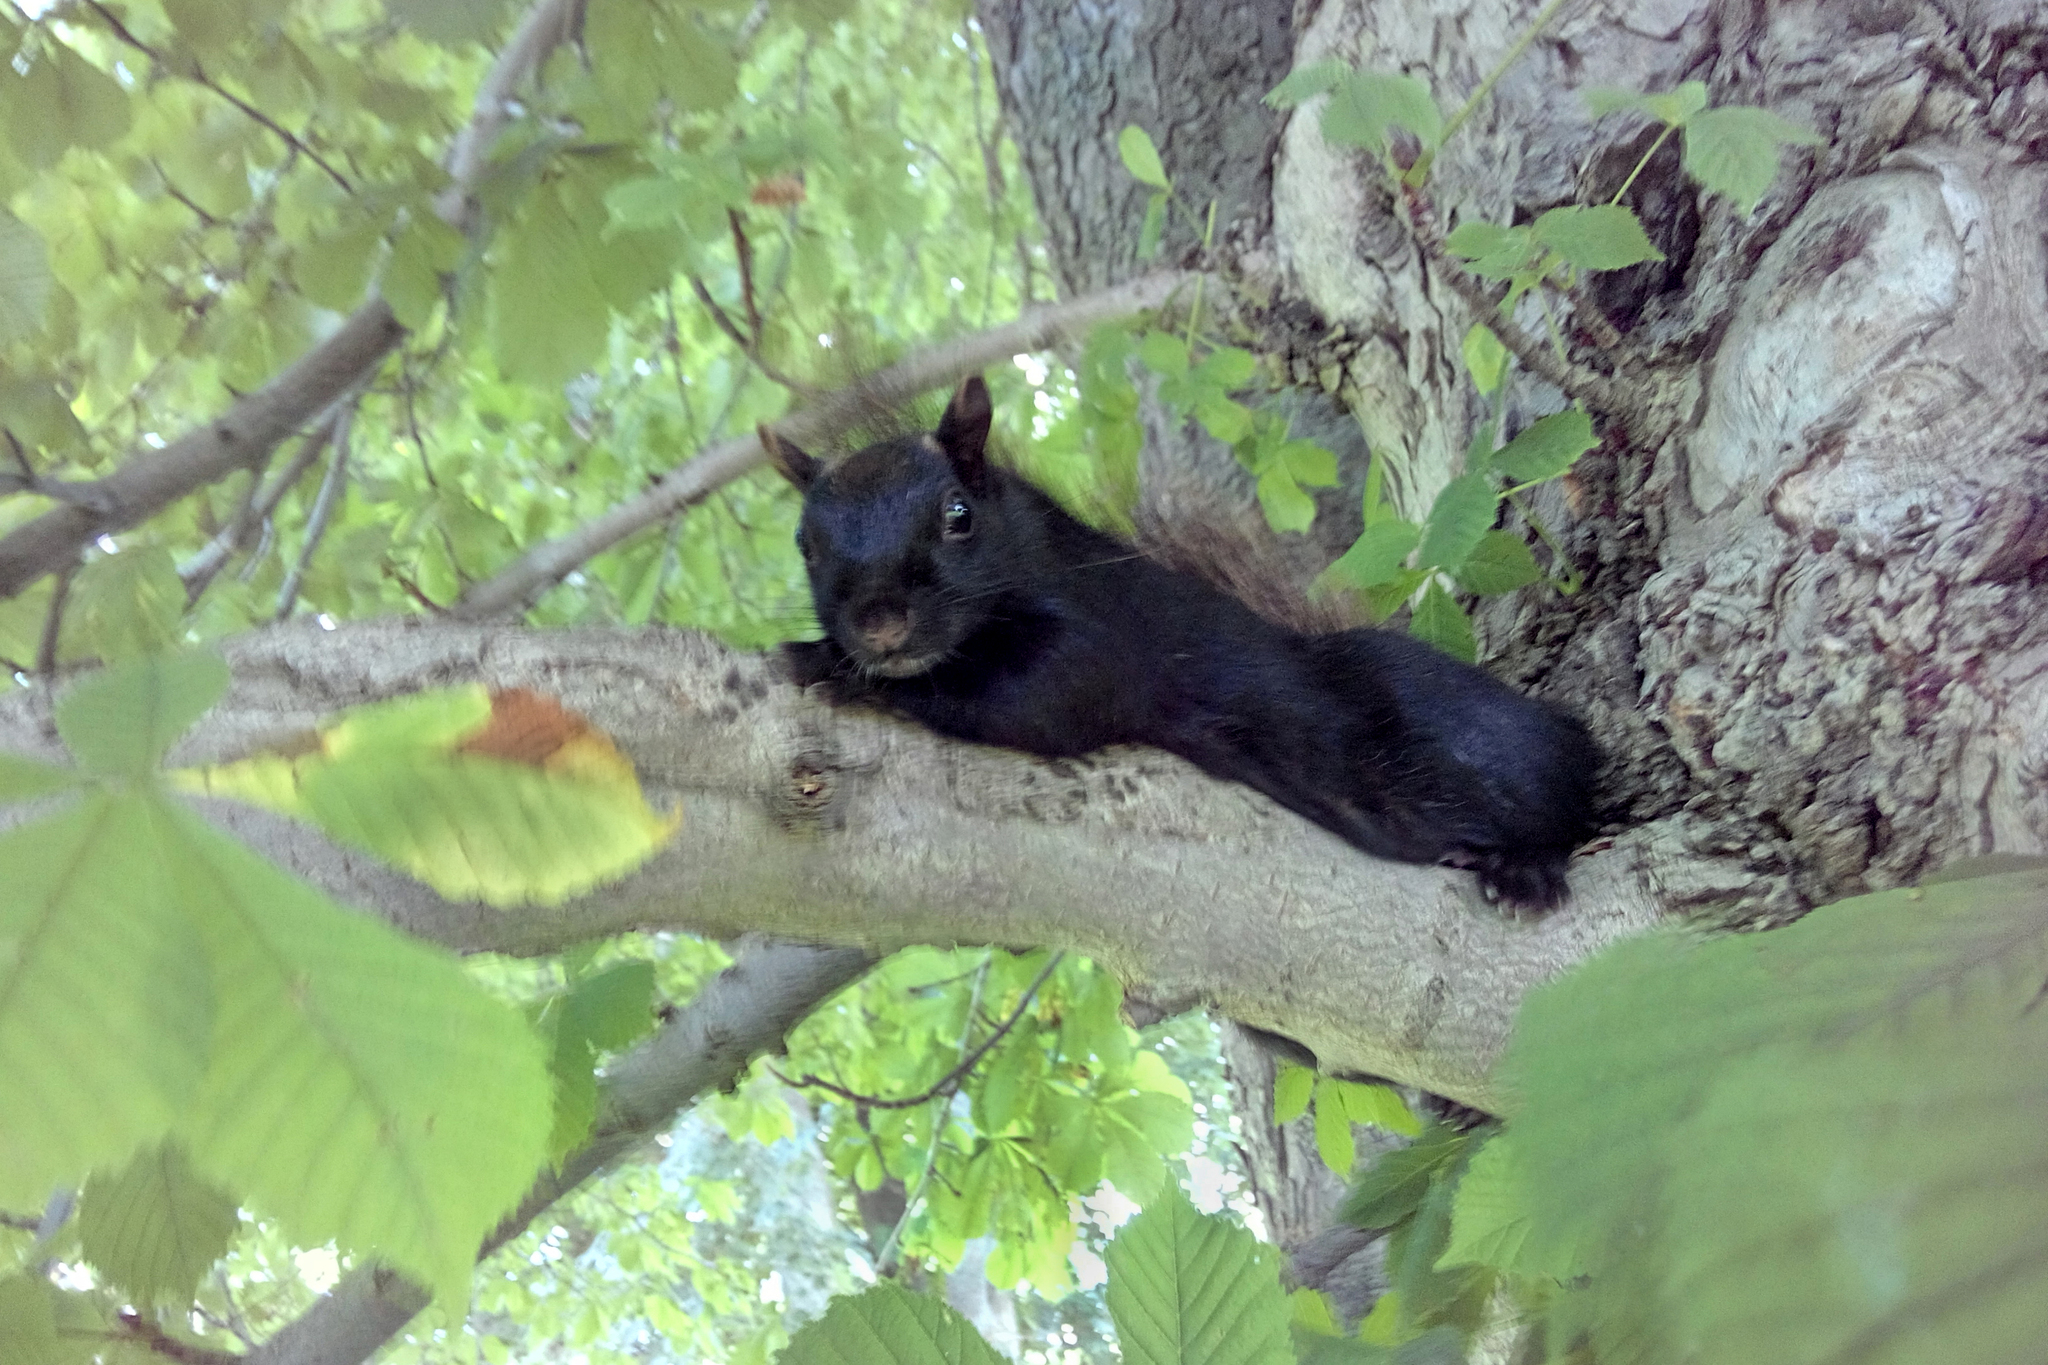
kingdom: Animalia
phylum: Chordata
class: Mammalia
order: Rodentia
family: Sciuridae
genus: Sciurus
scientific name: Sciurus carolinensis
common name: Eastern gray squirrel
